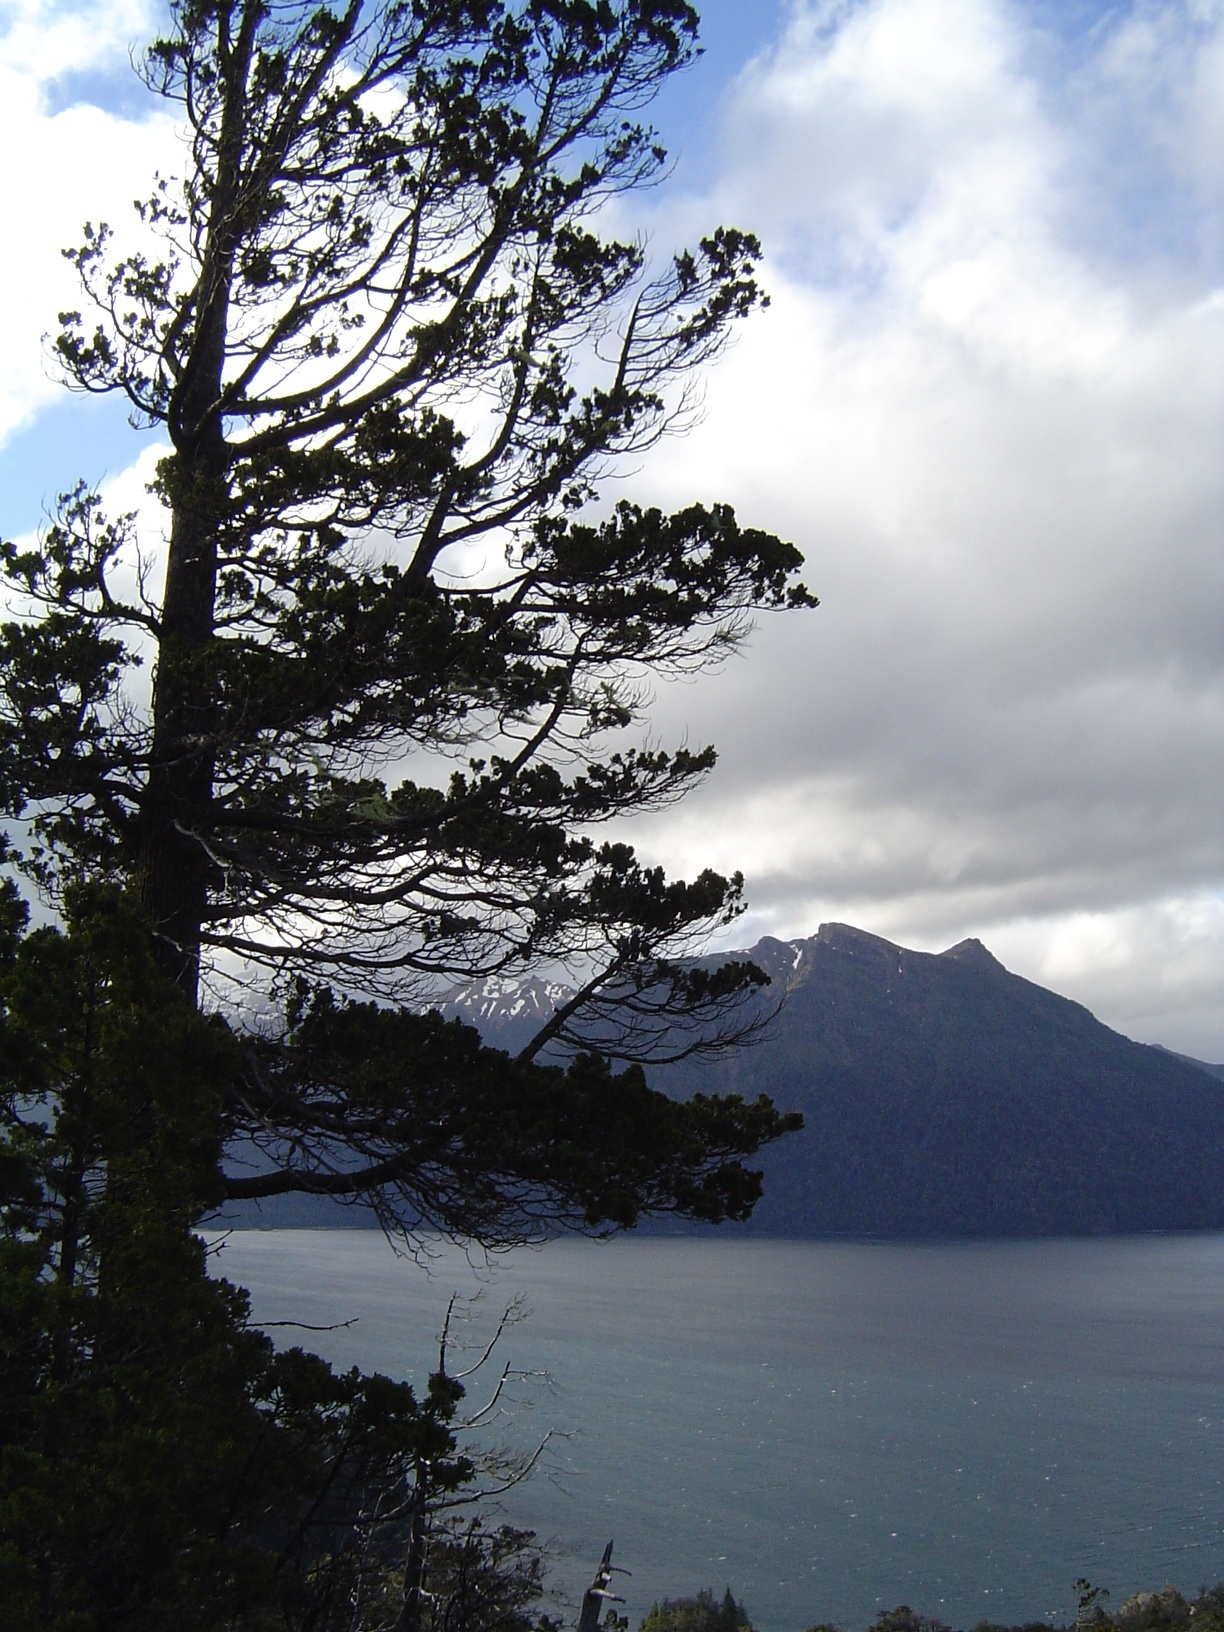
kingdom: Plantae
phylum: Tracheophyta
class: Pinopsida
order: Pinales
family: Cupressaceae
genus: Austrocedrus
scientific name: Austrocedrus chilensis
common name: Chilean incense-cedar
